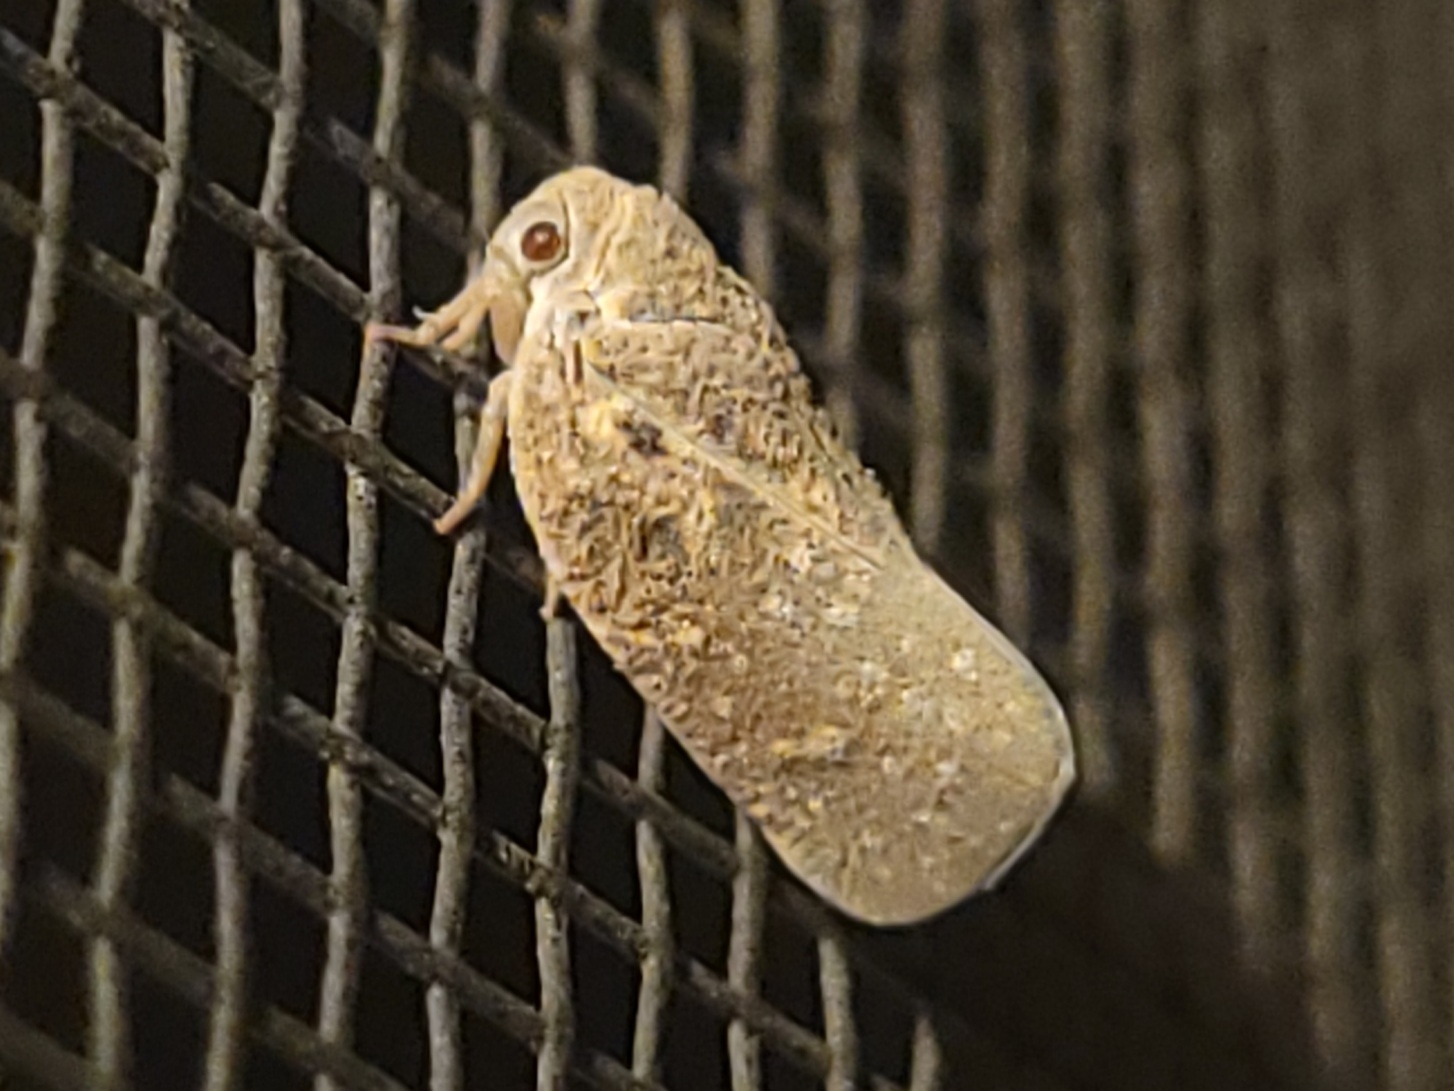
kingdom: Animalia
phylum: Arthropoda
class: Insecta
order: Hemiptera
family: Flatidae
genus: Metcalfa
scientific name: Metcalfa pruinosa
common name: Citrus flatid planthopper
